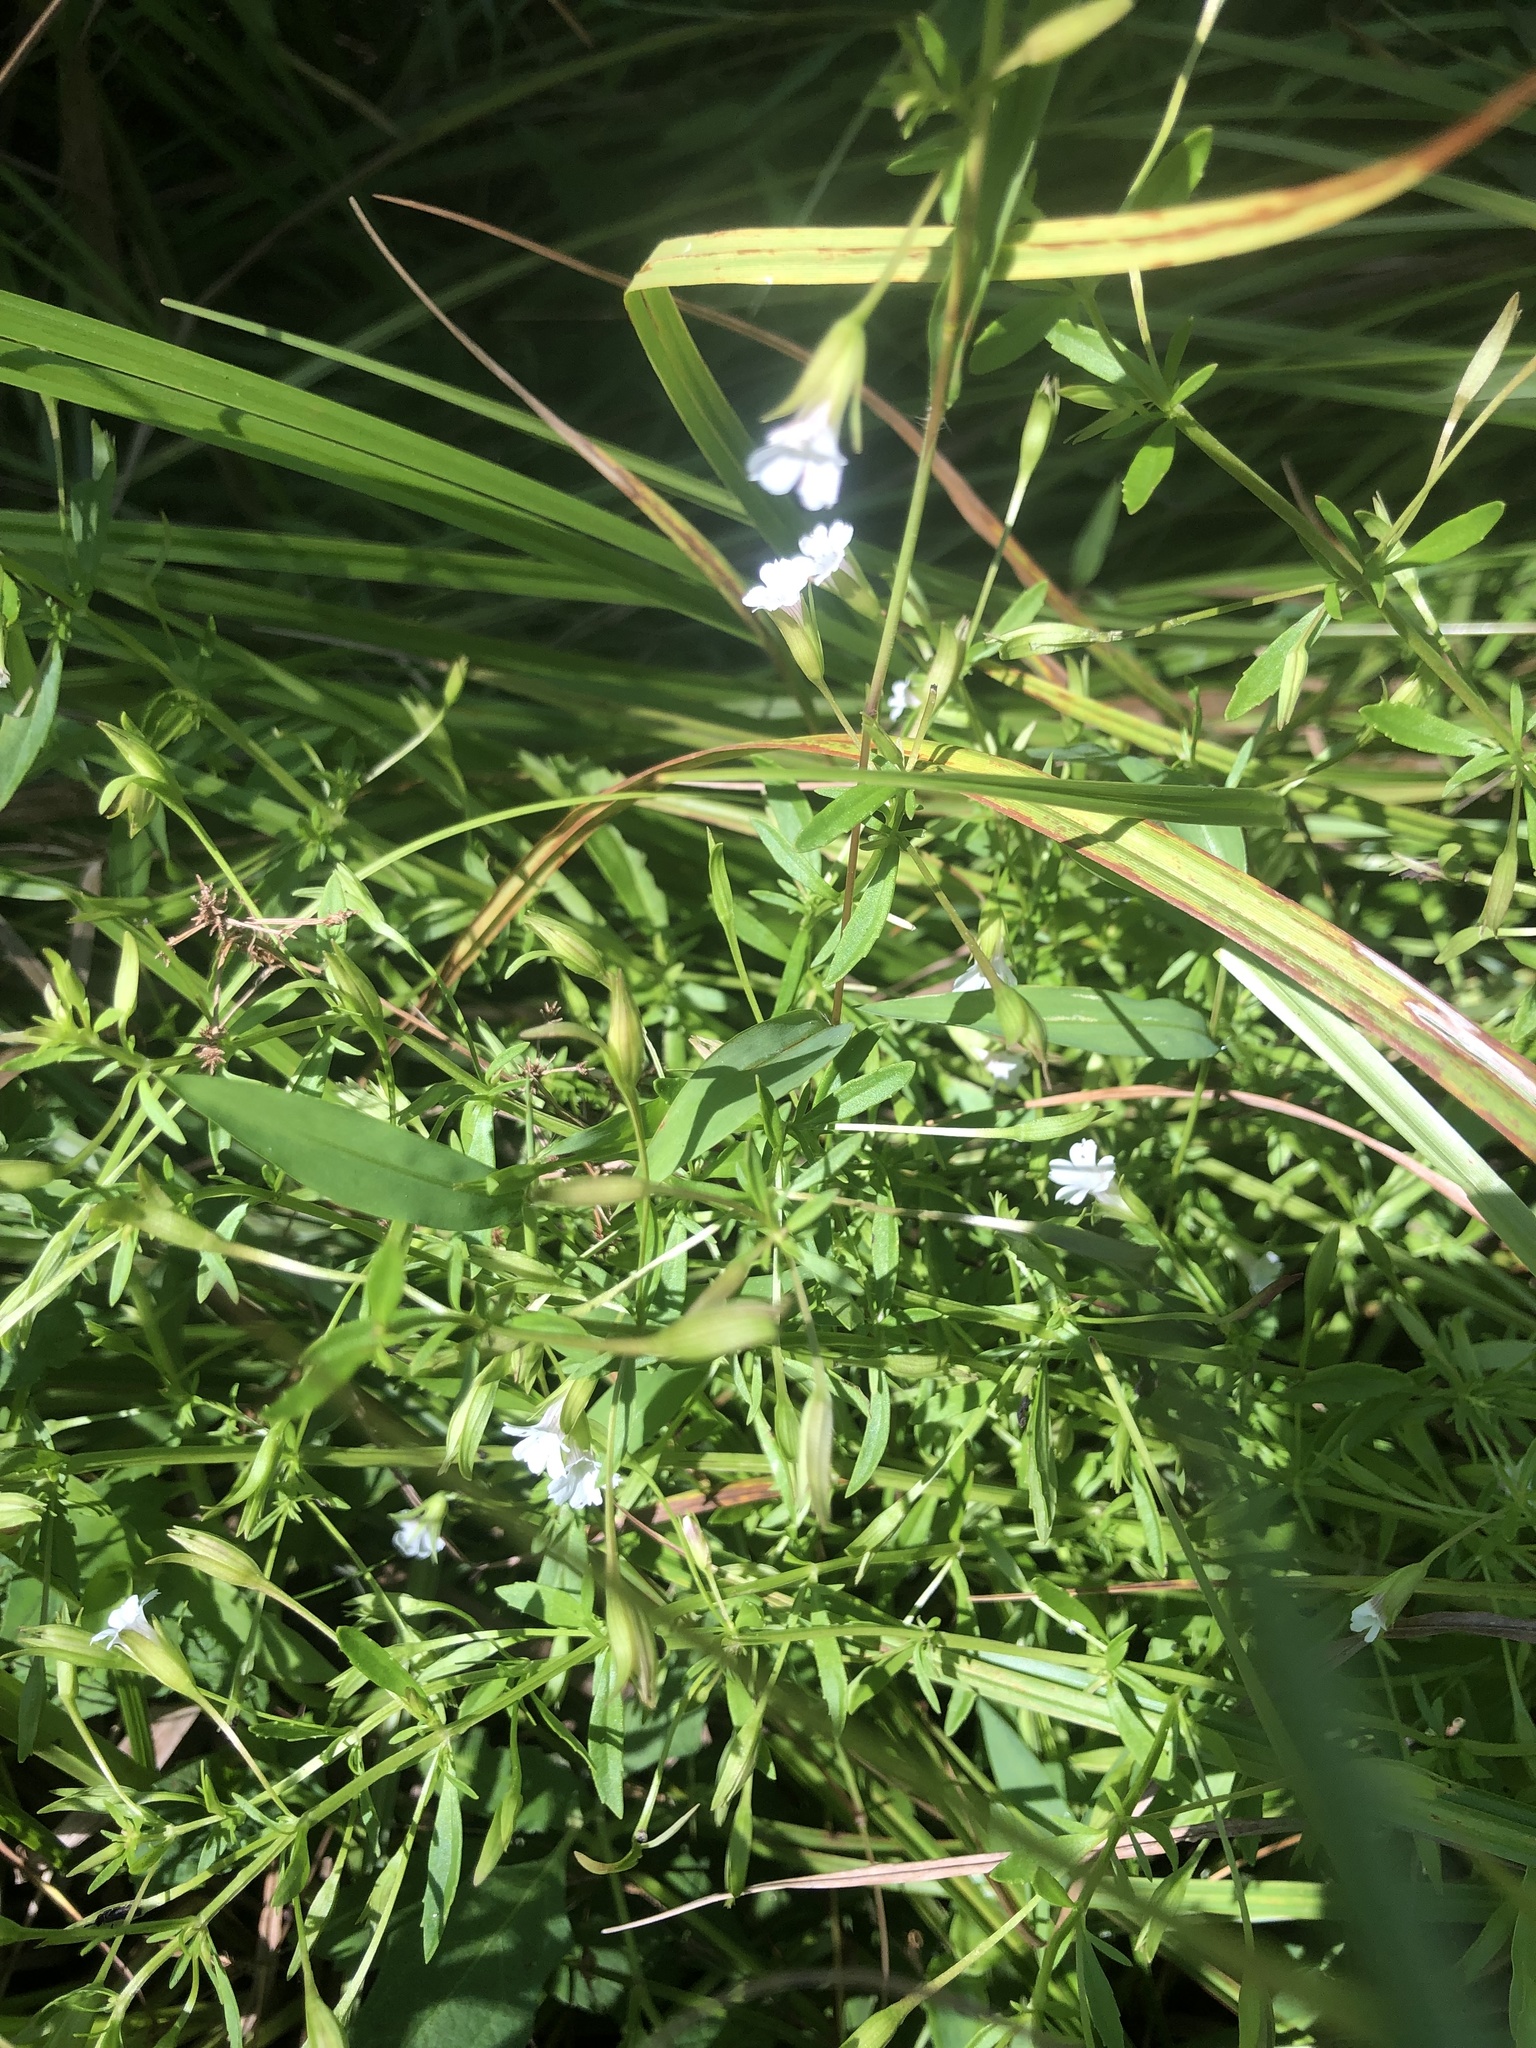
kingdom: Plantae
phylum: Tracheophyta
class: Magnoliopsida
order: Lamiales
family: Plantaginaceae
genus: Mecardonia
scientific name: Mecardonia acuminata
